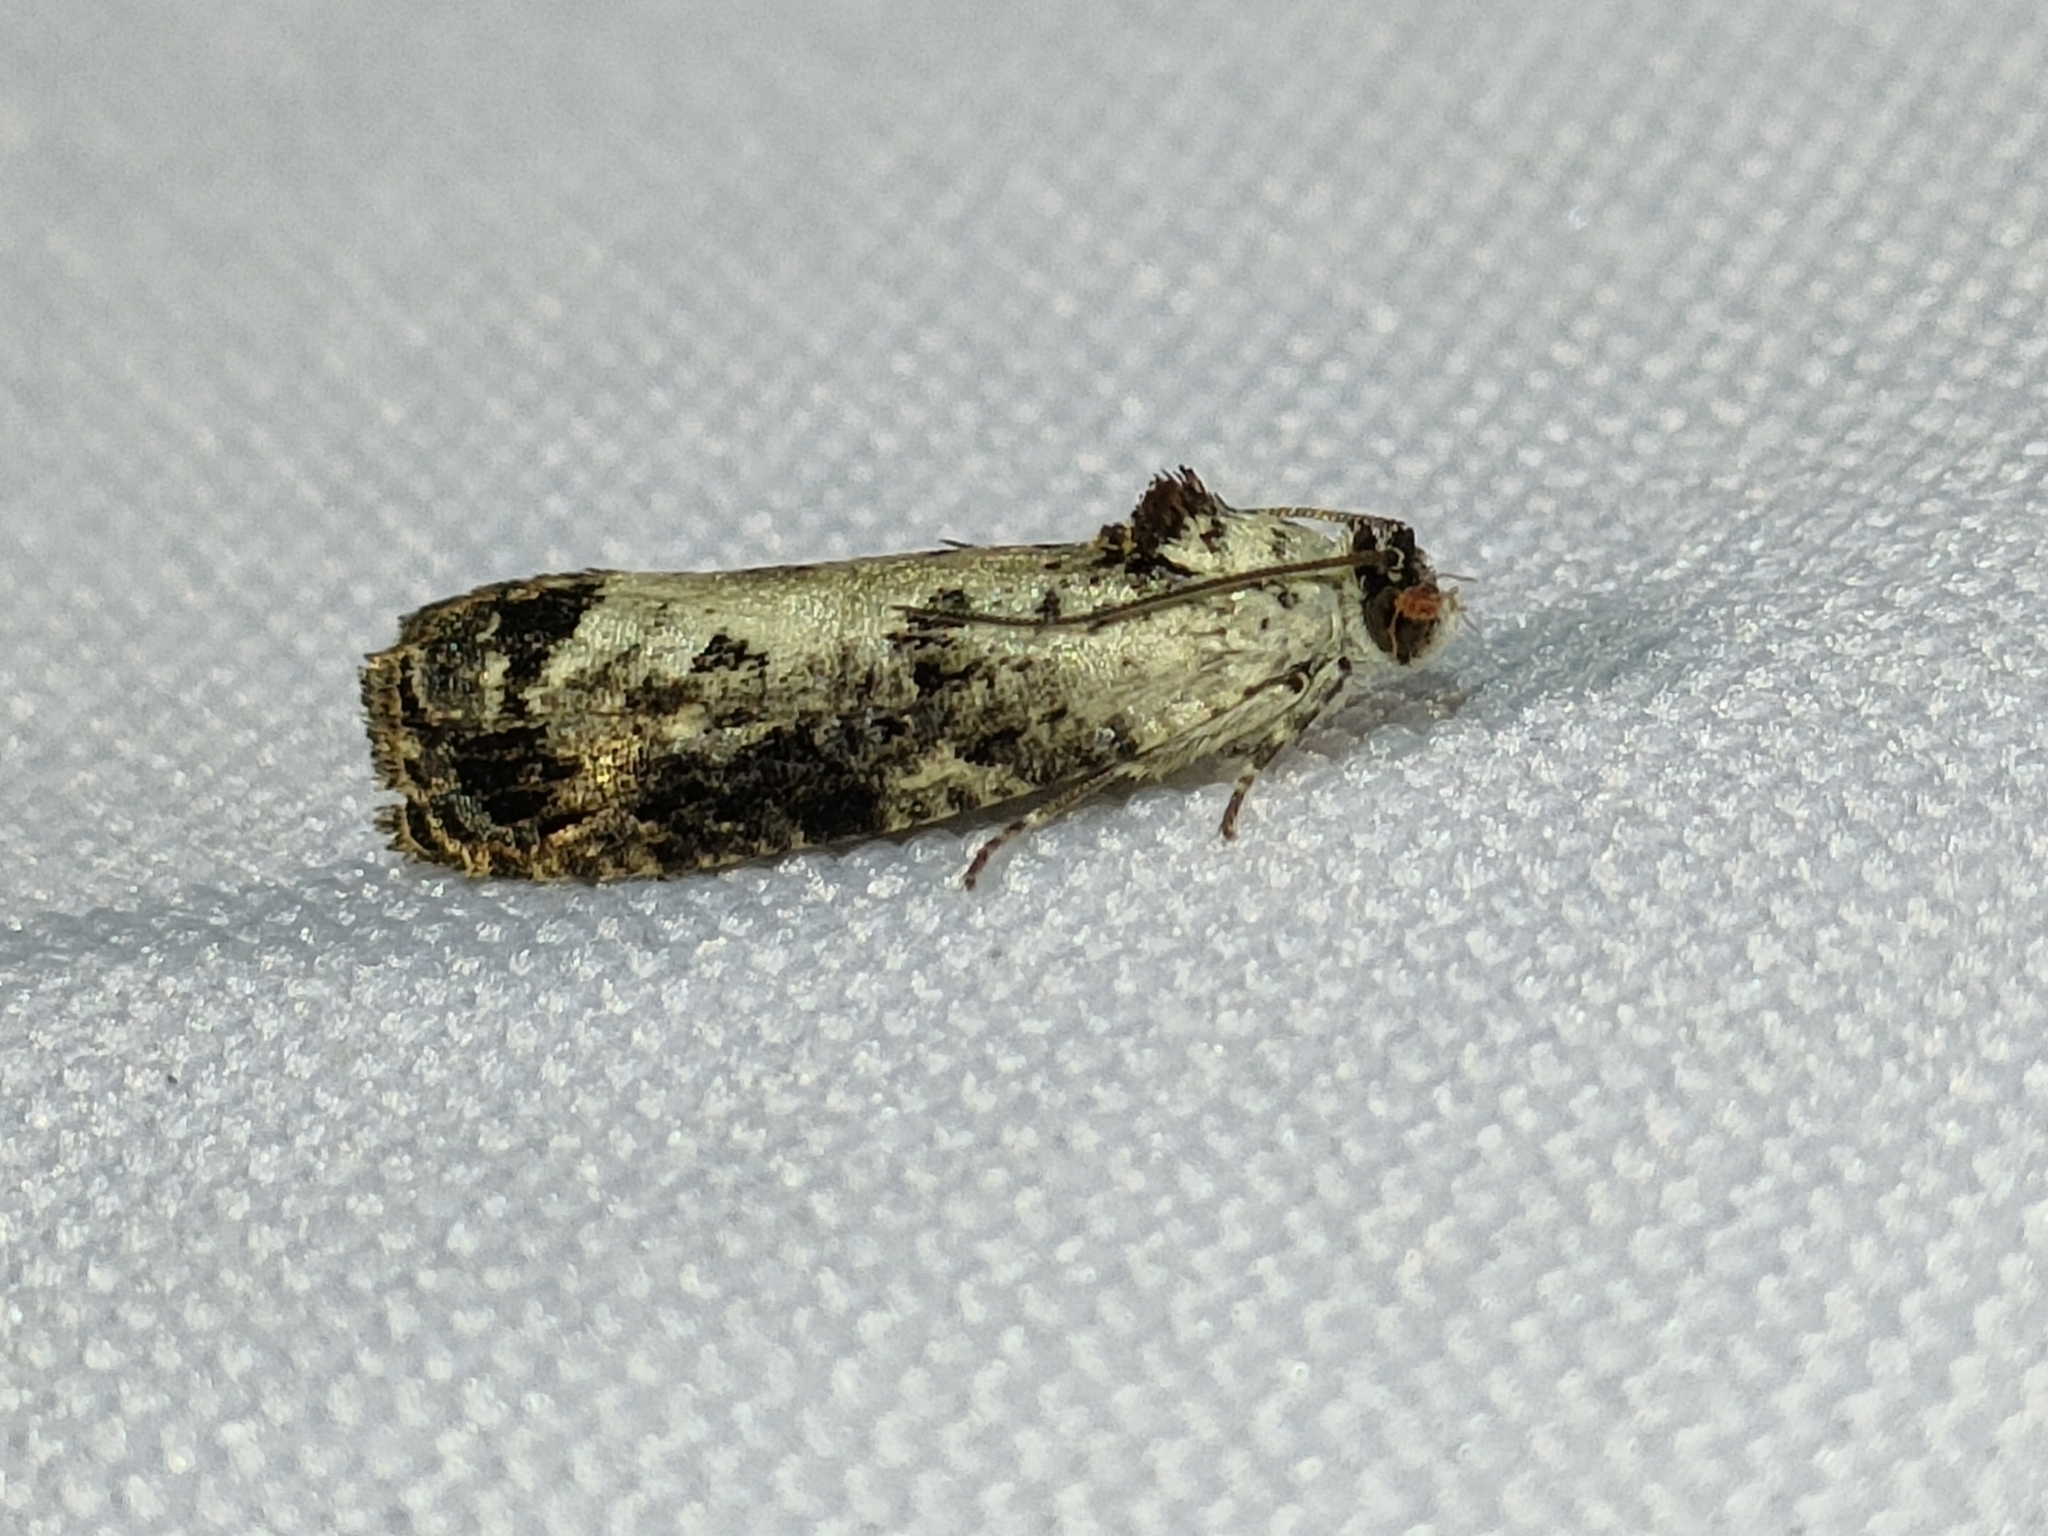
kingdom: Animalia
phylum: Arthropoda
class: Insecta
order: Lepidoptera
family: Tortricidae
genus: Hedya
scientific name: Hedya salicella
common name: Large tortricid moth
